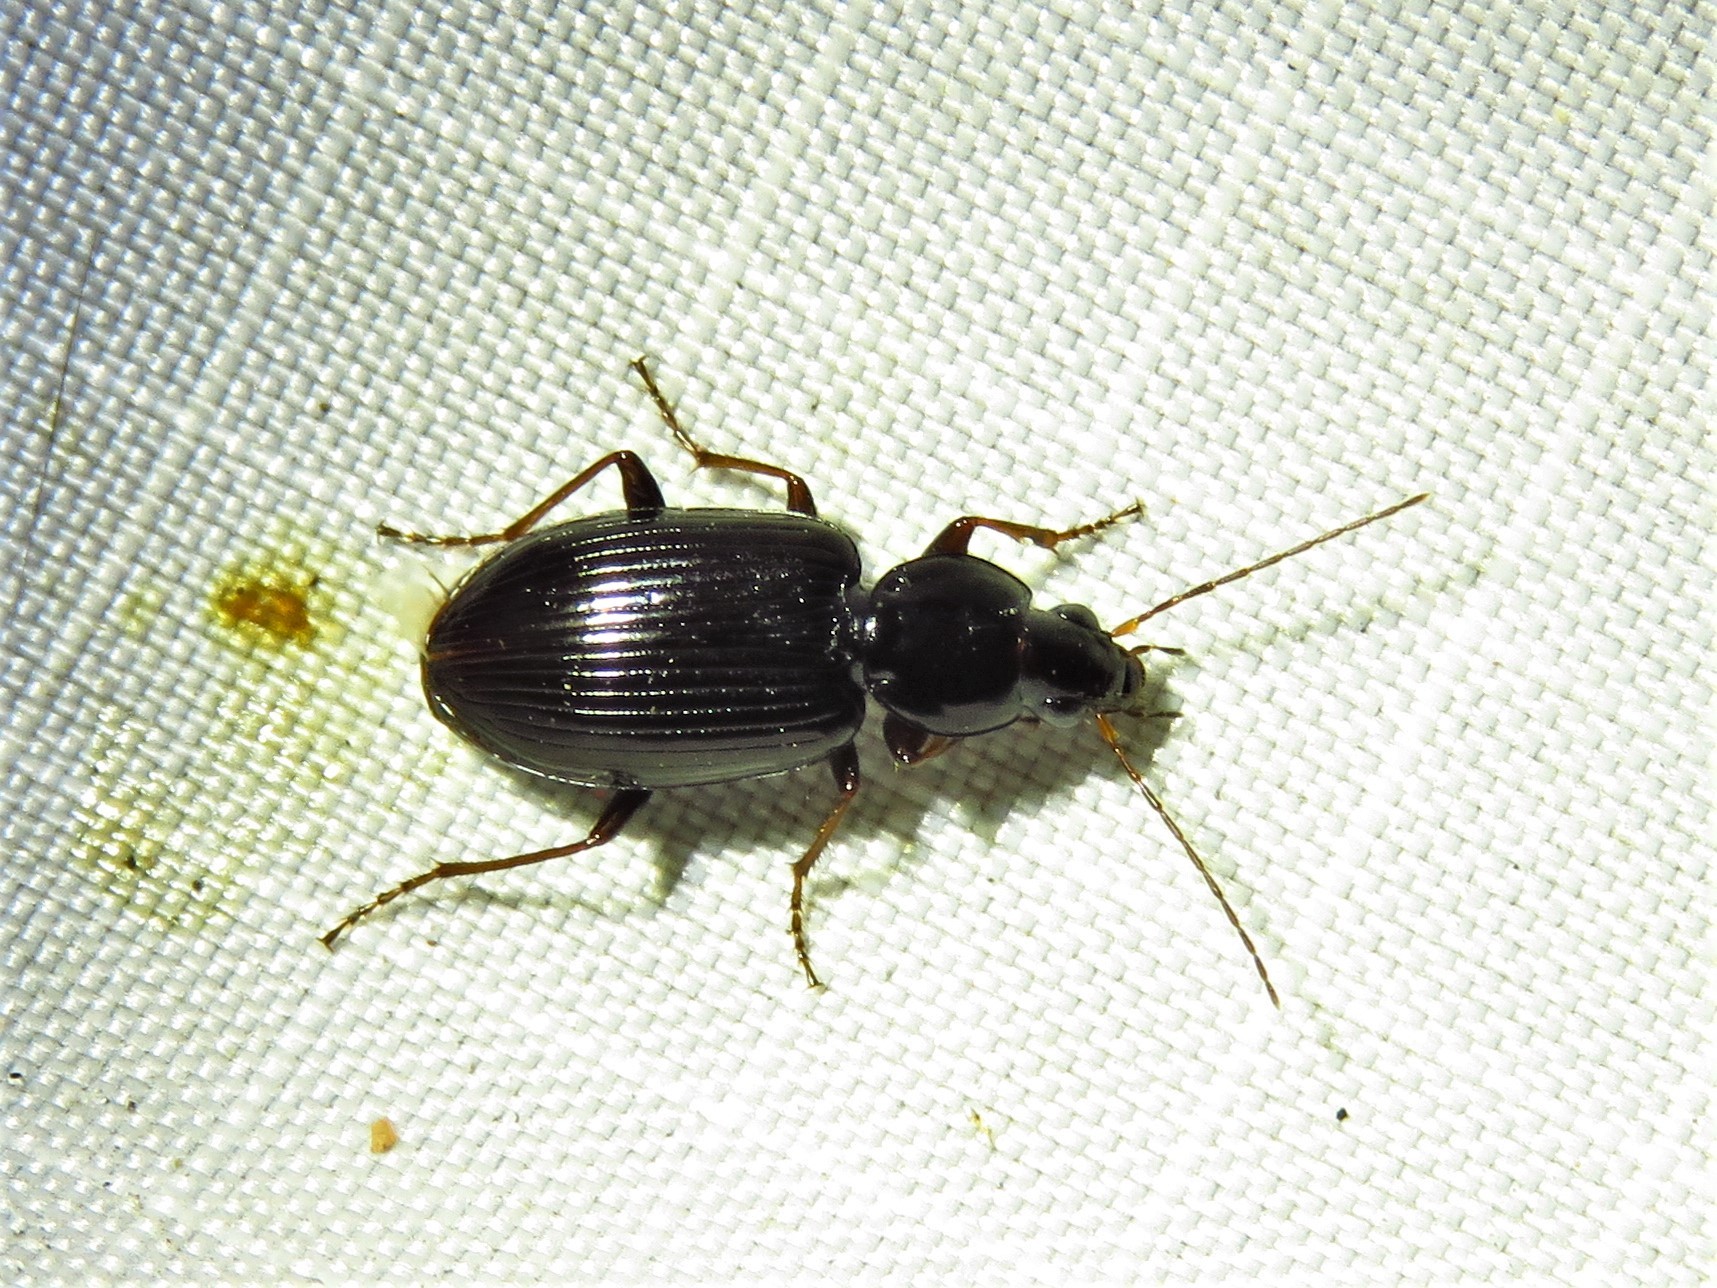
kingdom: Animalia
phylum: Arthropoda
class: Insecta
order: Coleoptera
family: Carabidae
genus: Agonum
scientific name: Agonum punctiforme
